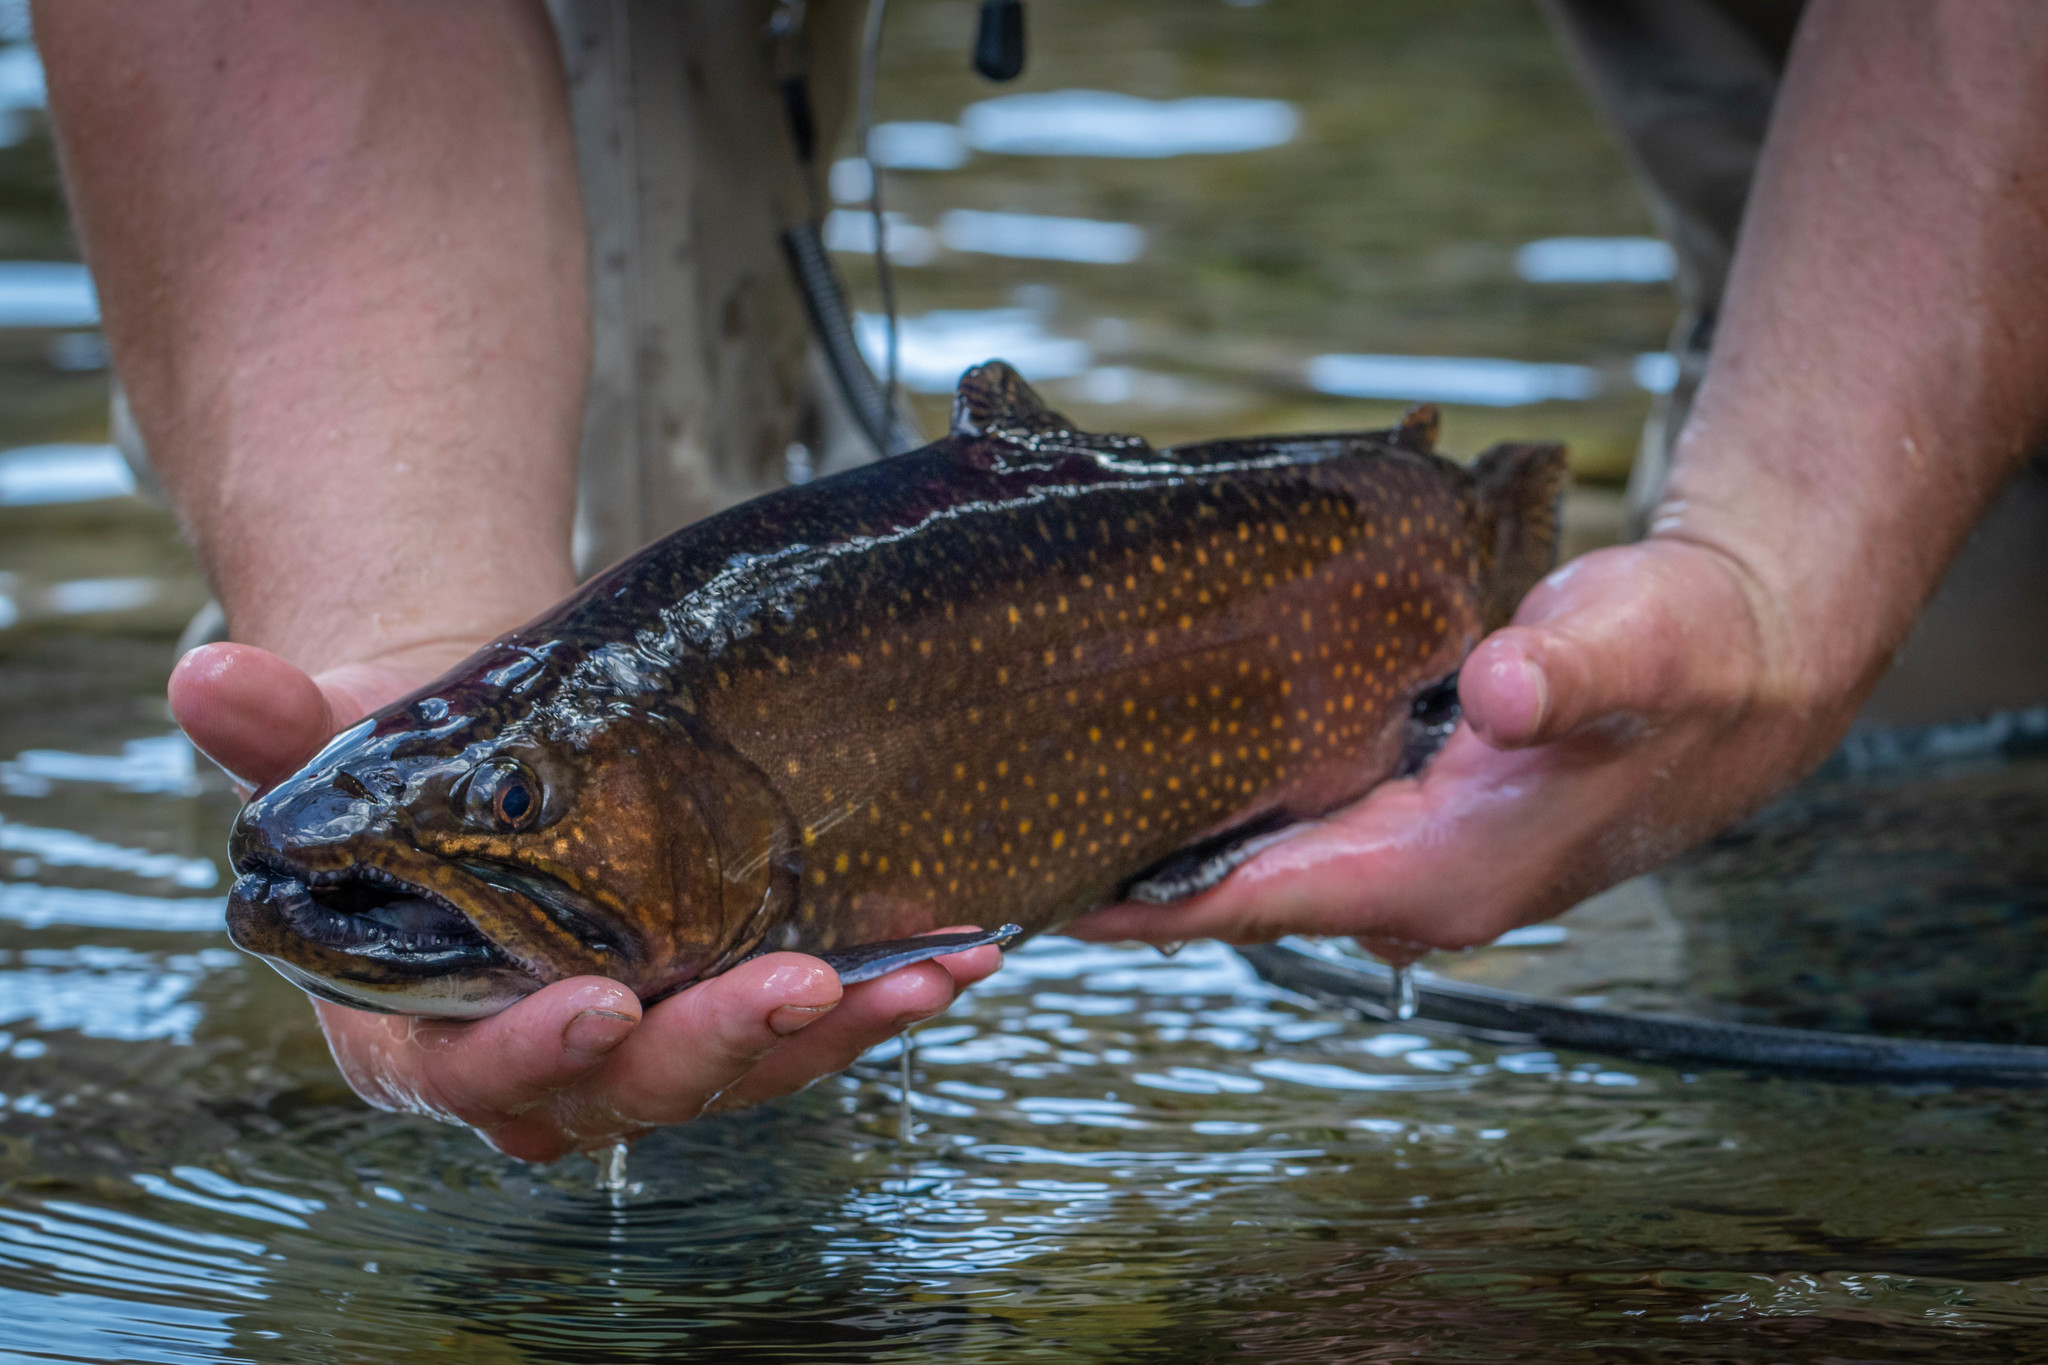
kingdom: Animalia
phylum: Chordata
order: Salmoniformes
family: Salmonidae
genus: Salvelinus
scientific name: Salvelinus fontinalis
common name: Brook trout
